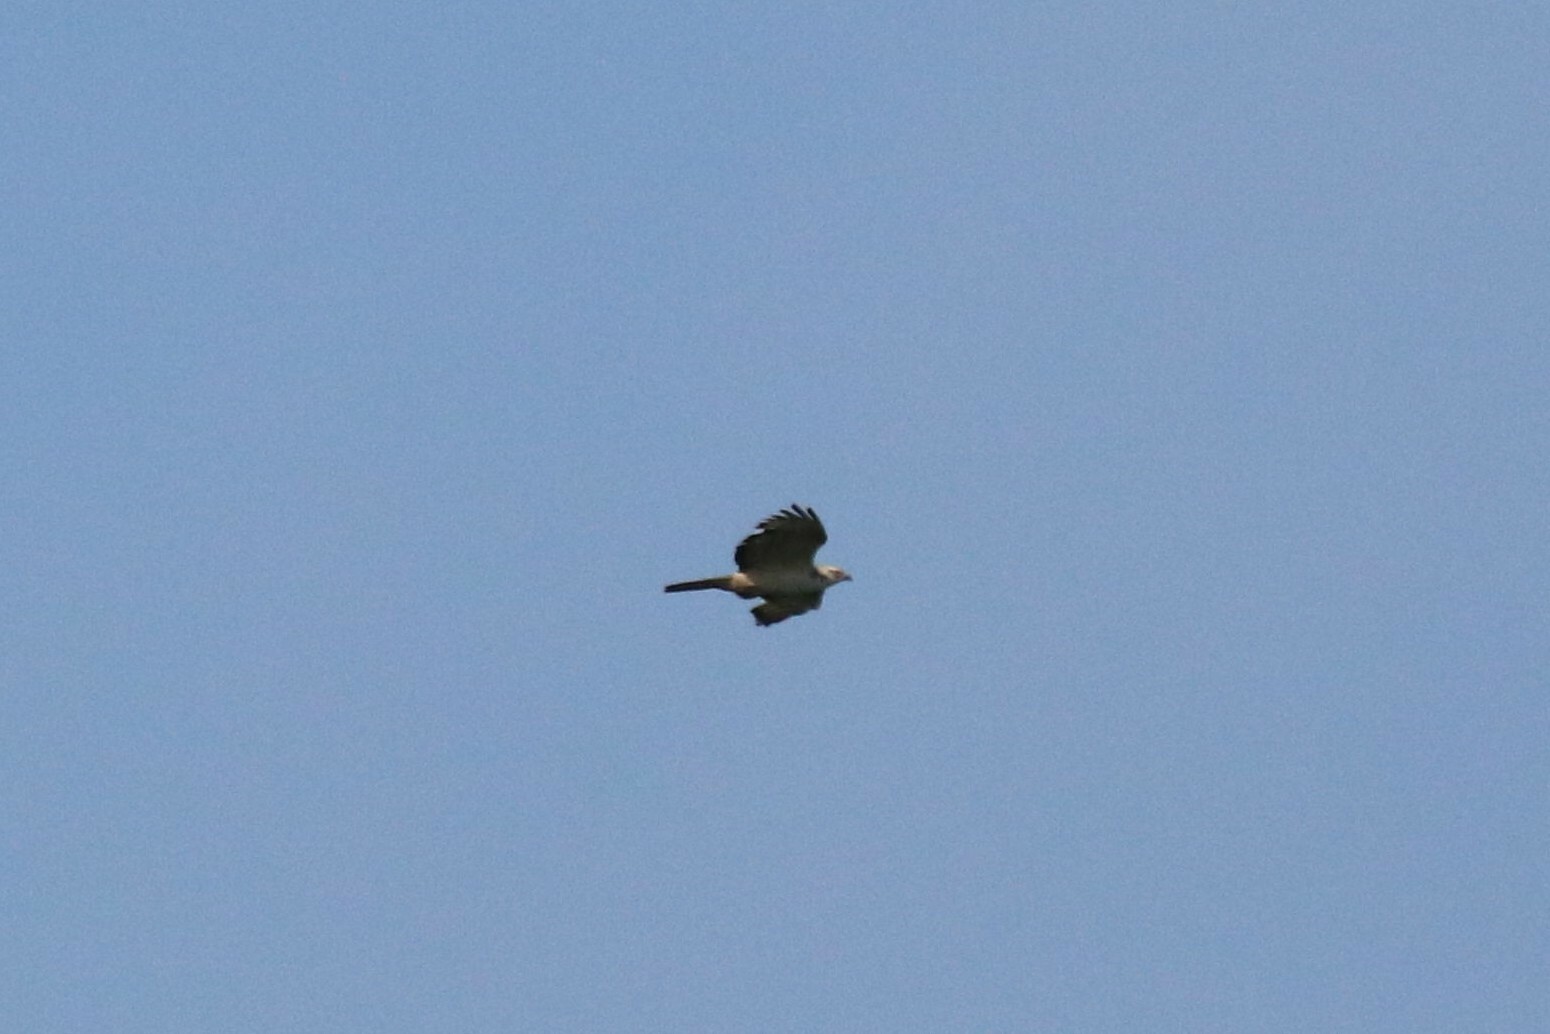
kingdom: Animalia
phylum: Chordata
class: Aves
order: Accipitriformes
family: Accipitridae
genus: Pernis
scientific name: Pernis apivorus
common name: European honey buzzard
